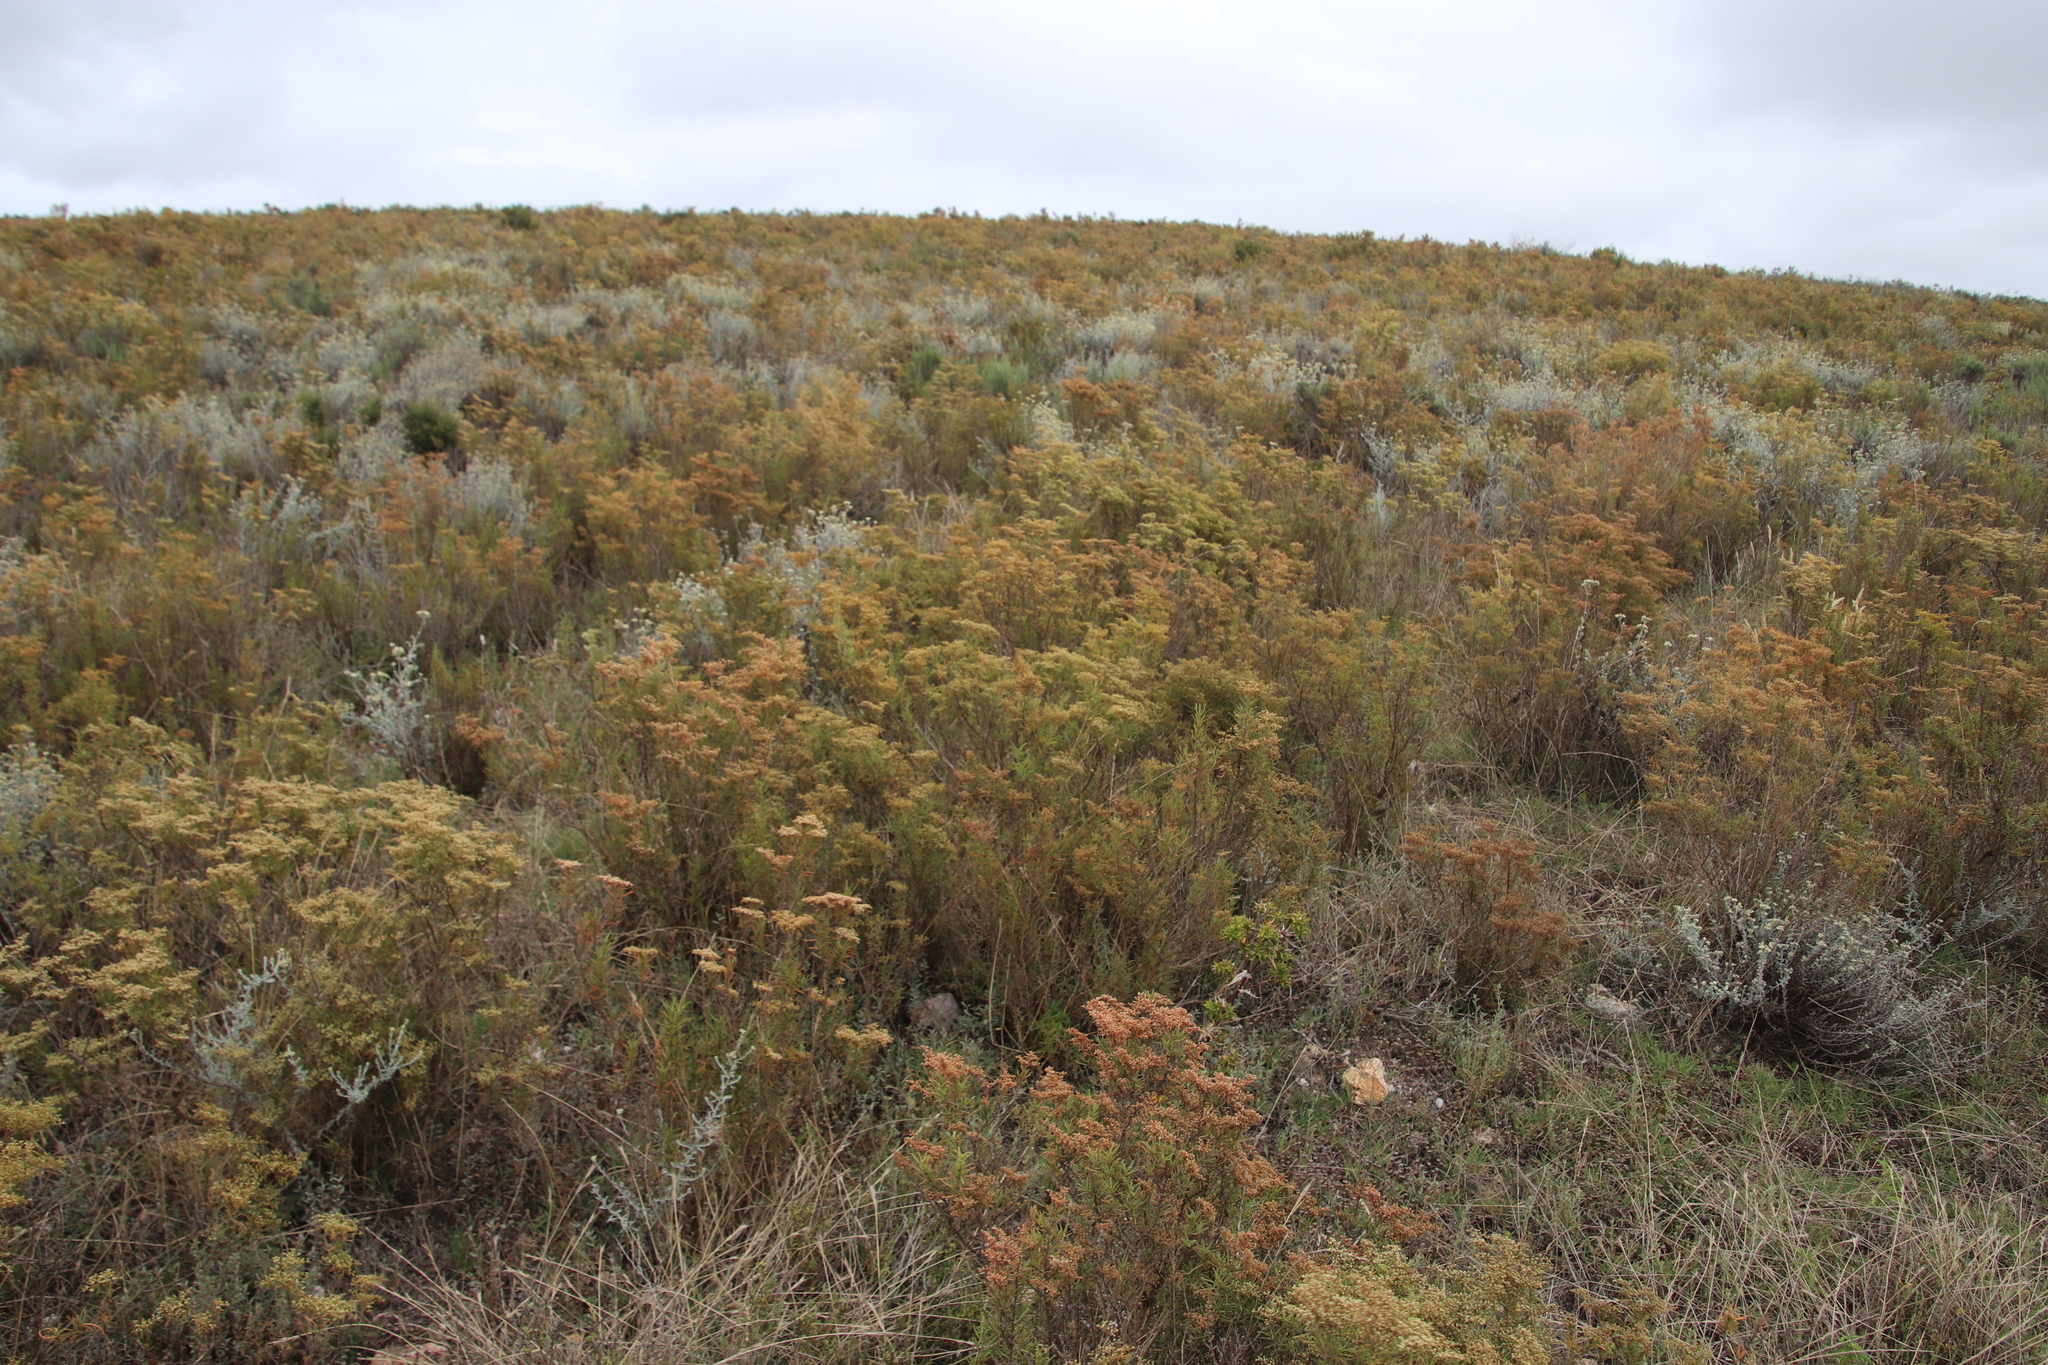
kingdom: Plantae
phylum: Tracheophyta
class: Magnoliopsida
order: Caryophyllales
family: Aizoaceae
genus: Aizoon
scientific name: Aizoon africanum
